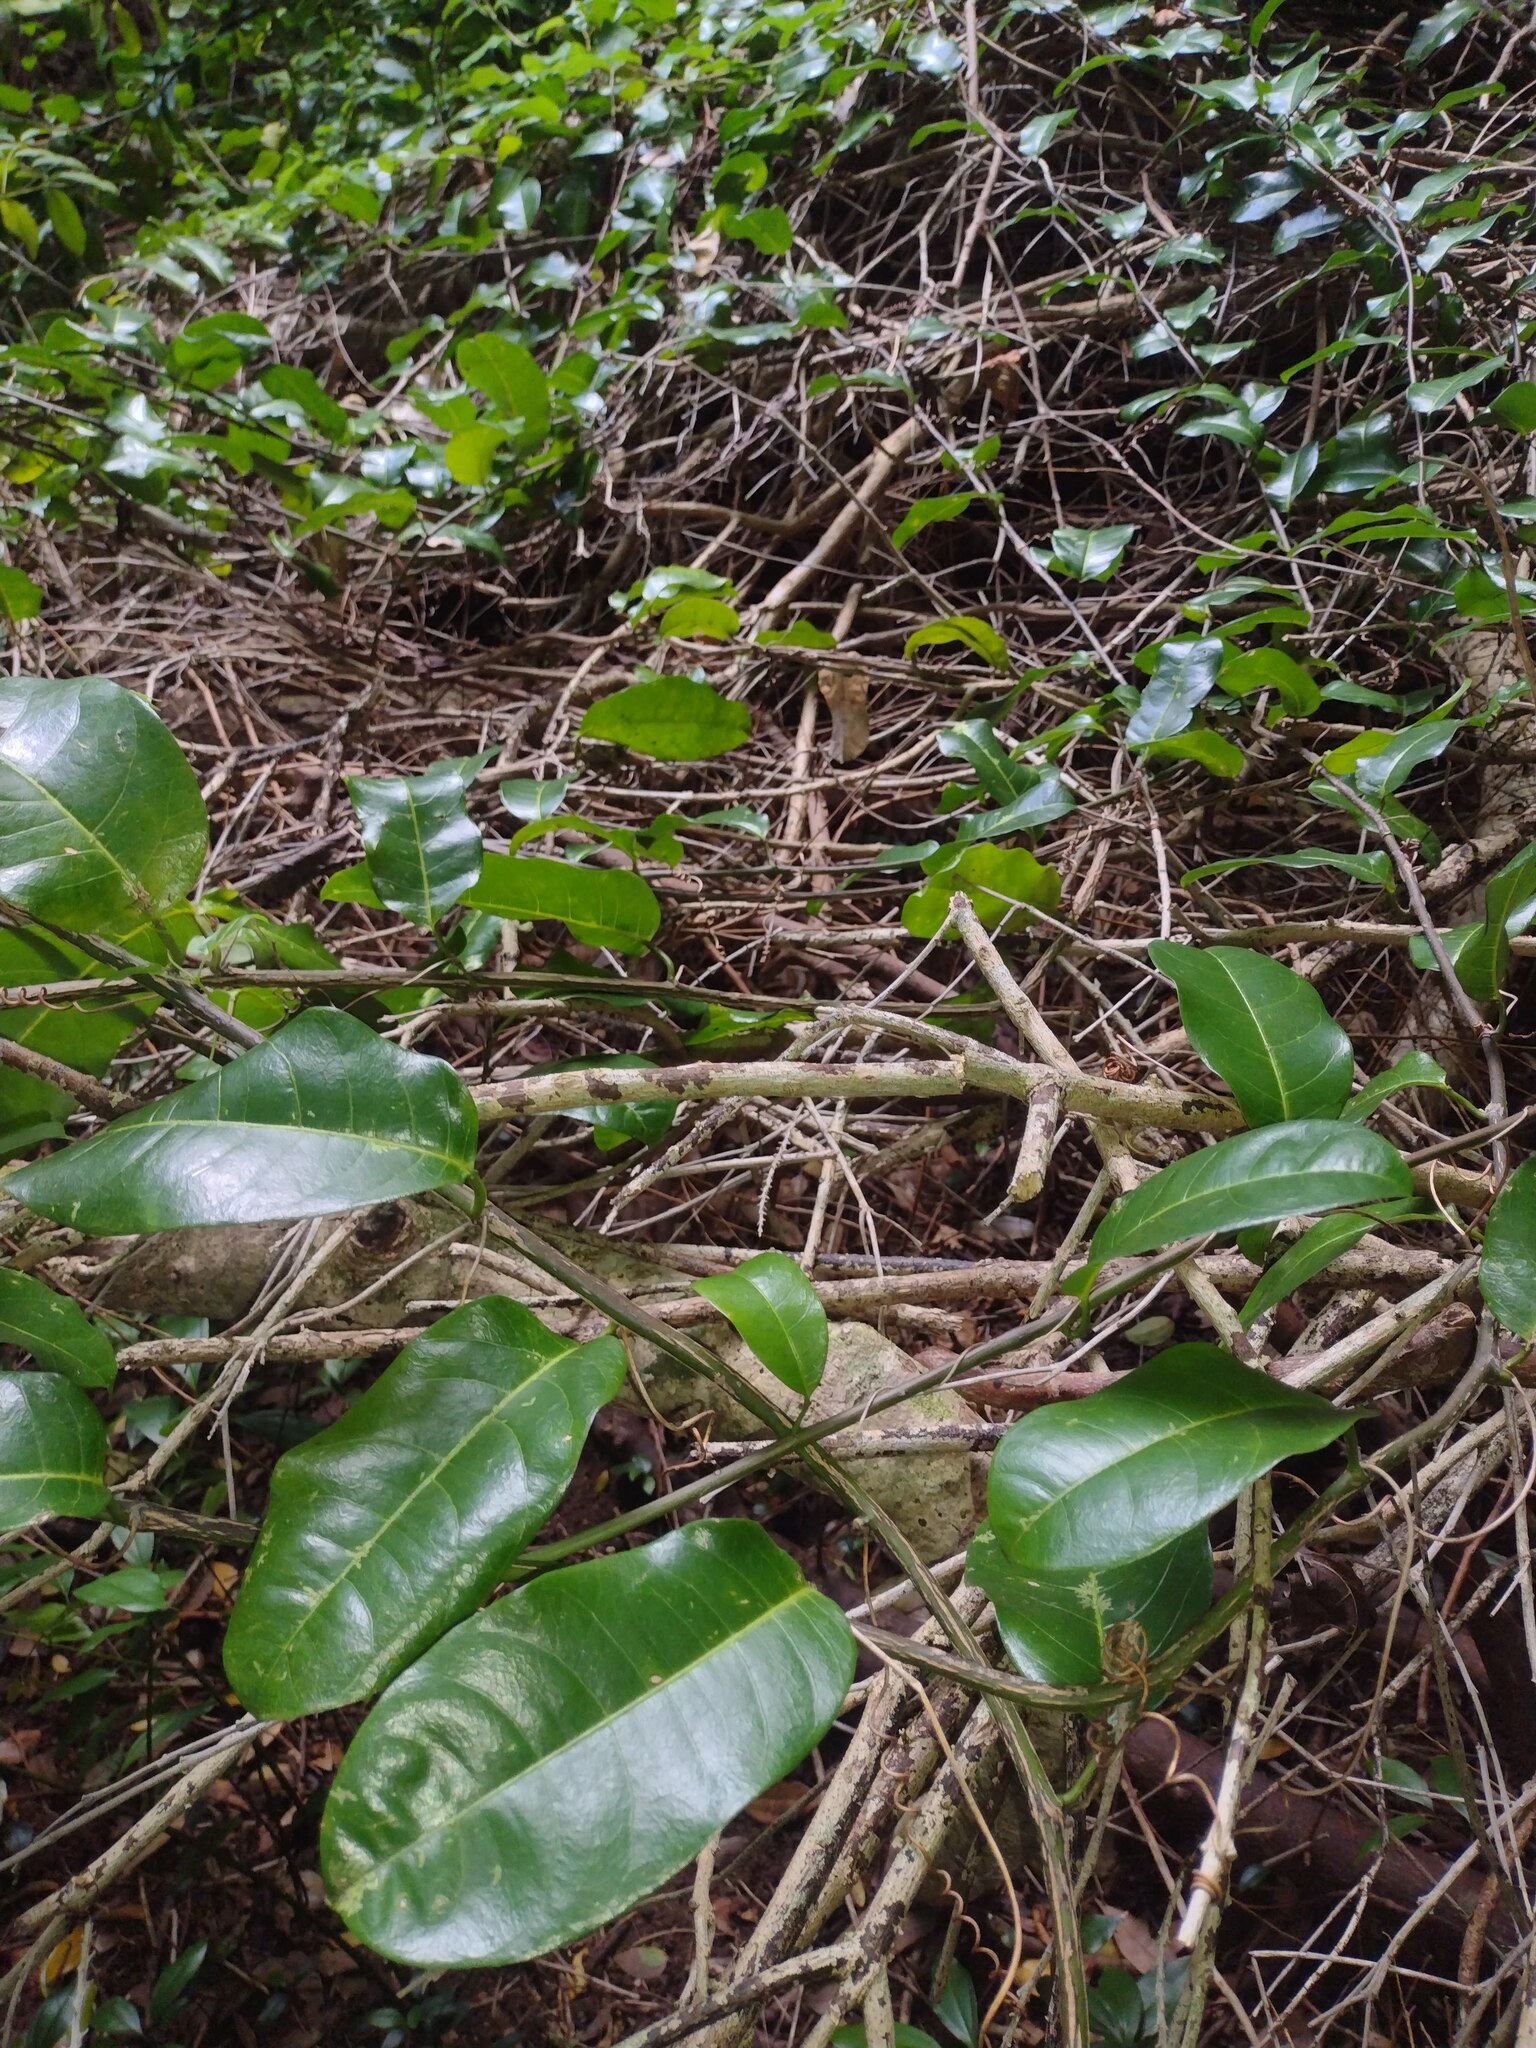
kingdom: Plantae
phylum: Tracheophyta
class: Magnoliopsida
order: Malpighiales
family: Passifloraceae
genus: Passiflora
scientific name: Passiflora laurifolia
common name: Bell apple
